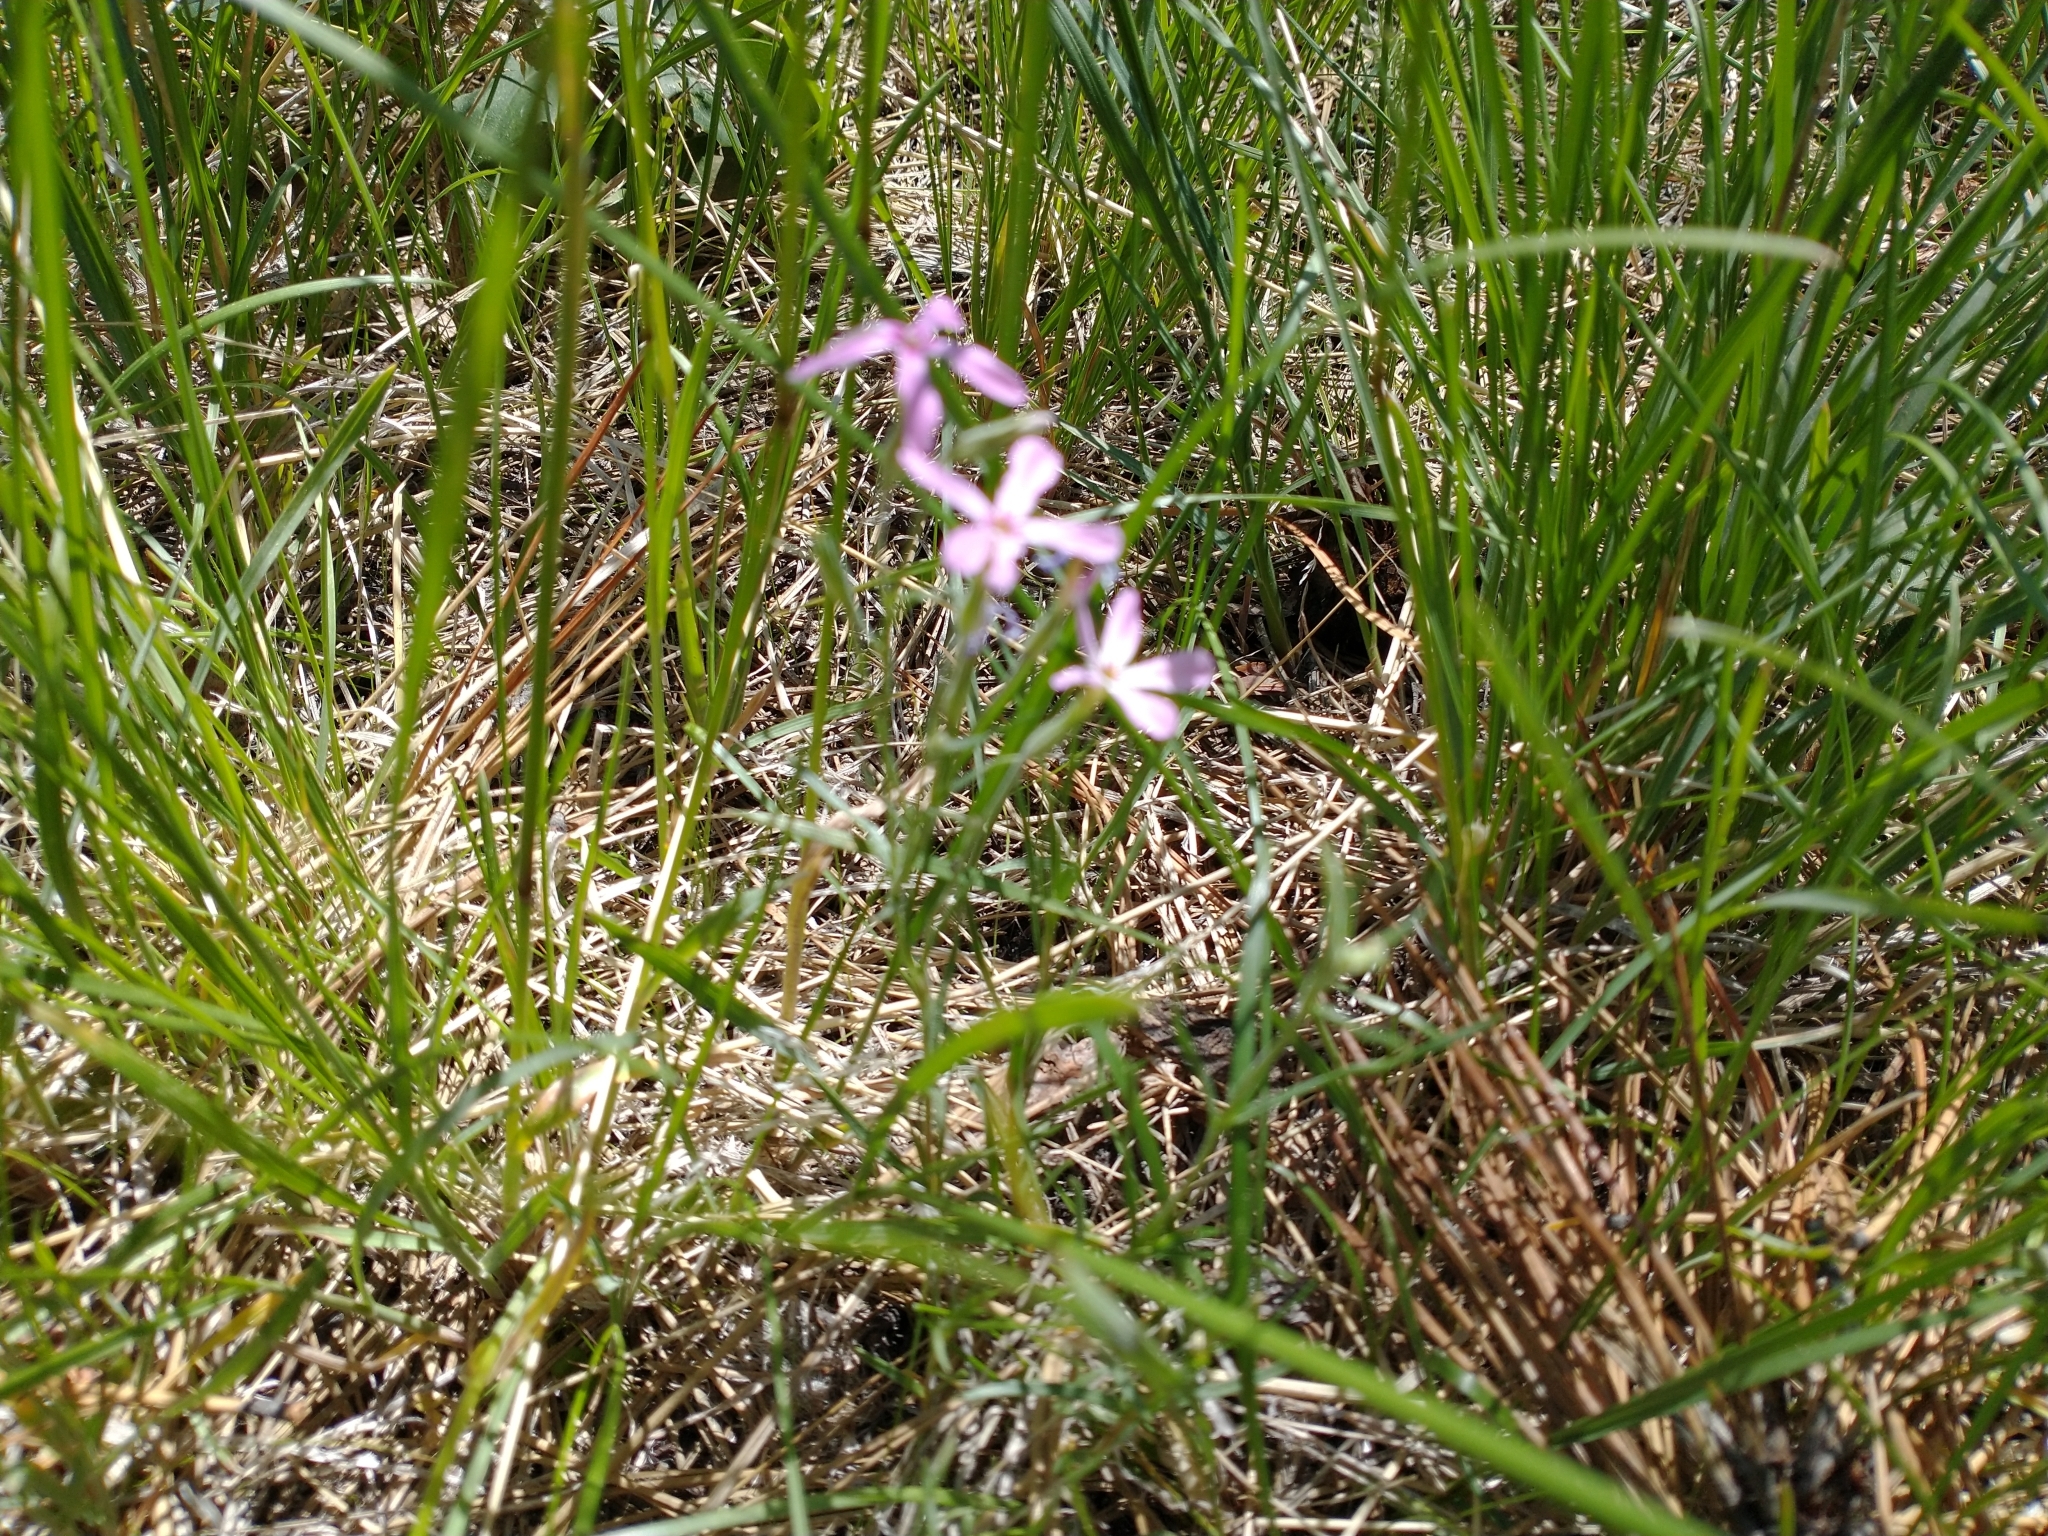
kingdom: Plantae
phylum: Tracheophyta
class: Magnoliopsida
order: Ericales
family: Polemoniaceae
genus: Phlox
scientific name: Phlox longifolia
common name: Longleaf phlox
